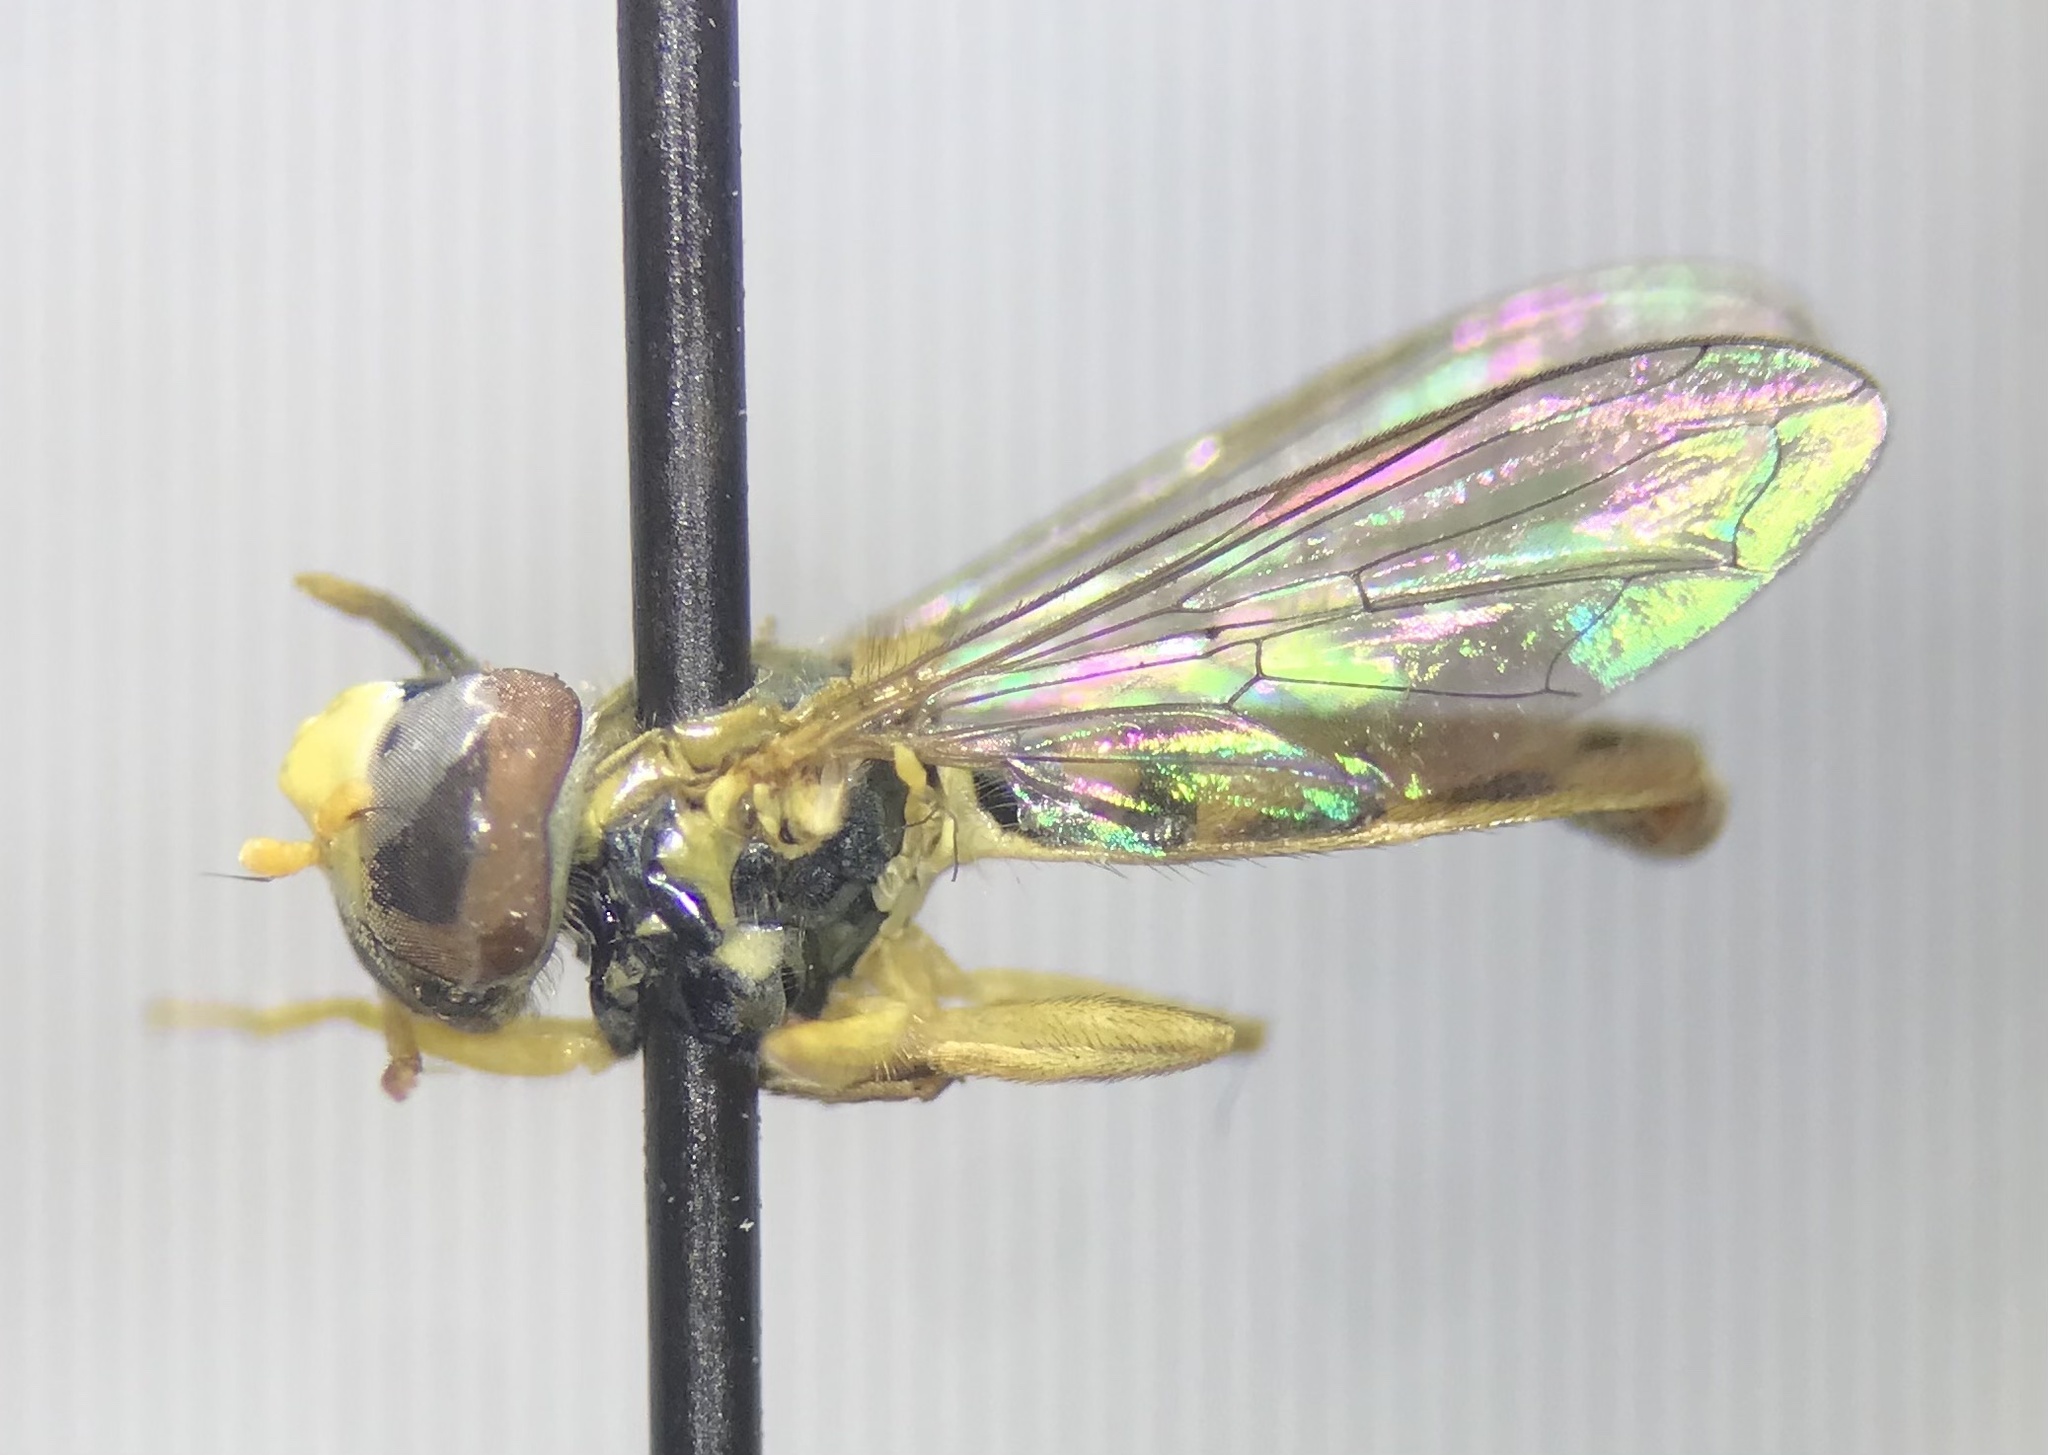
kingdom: Animalia
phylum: Arthropoda
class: Insecta
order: Diptera
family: Syrphidae
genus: Toxomerus
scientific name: Toxomerus marginatus
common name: Syrphid fly
